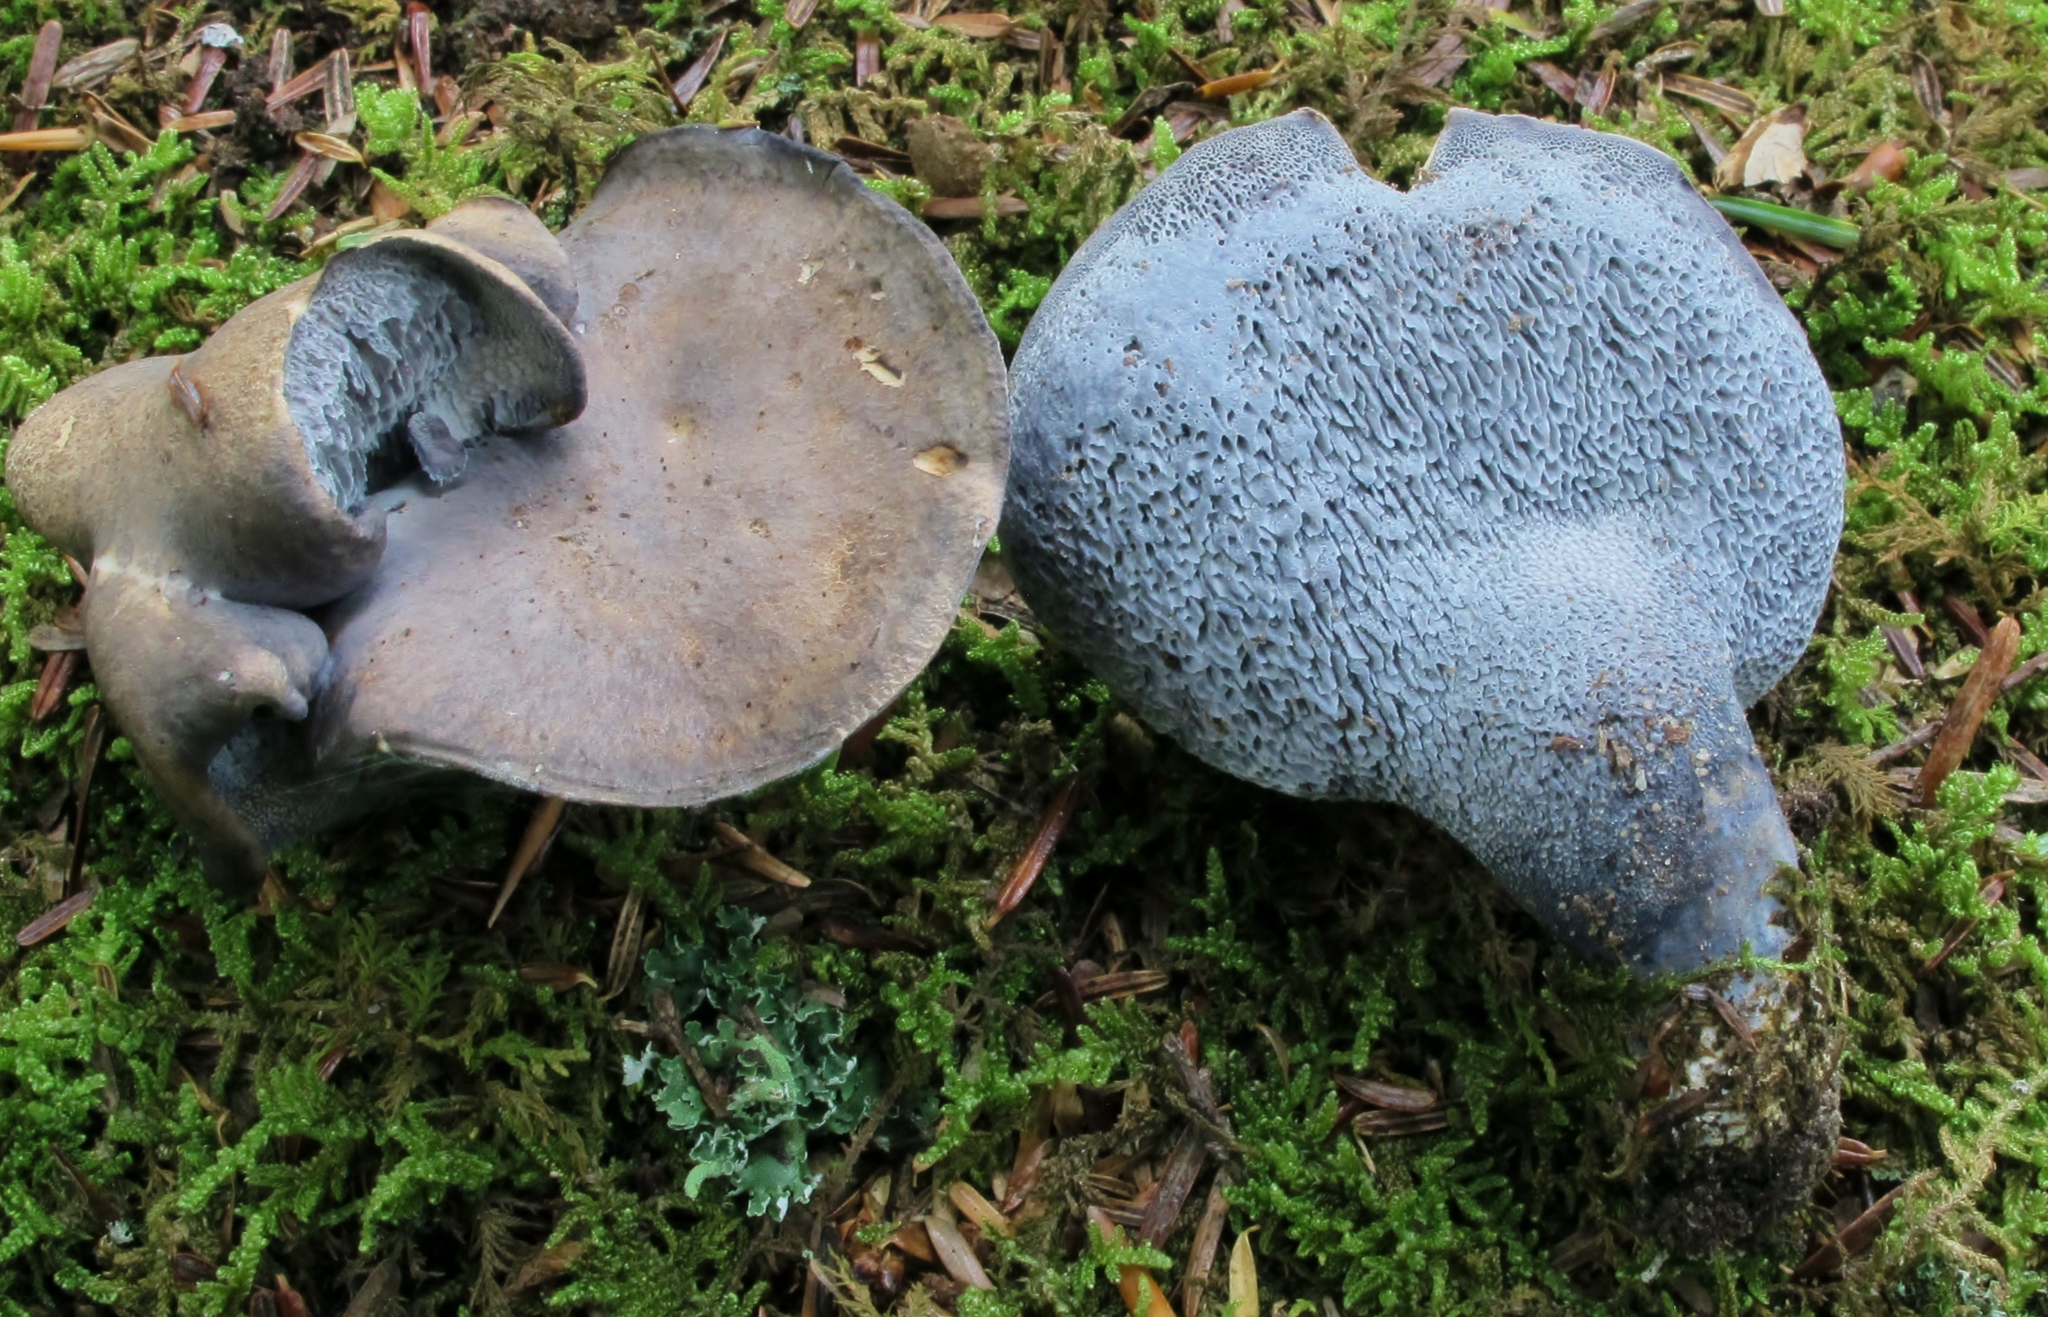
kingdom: Fungi
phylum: Basidiomycota
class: Agaricomycetes
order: Russulales
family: Albatrellaceae
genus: Neoalbatrellus
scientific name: Neoalbatrellus caeruleoporus
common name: Blue polypore
